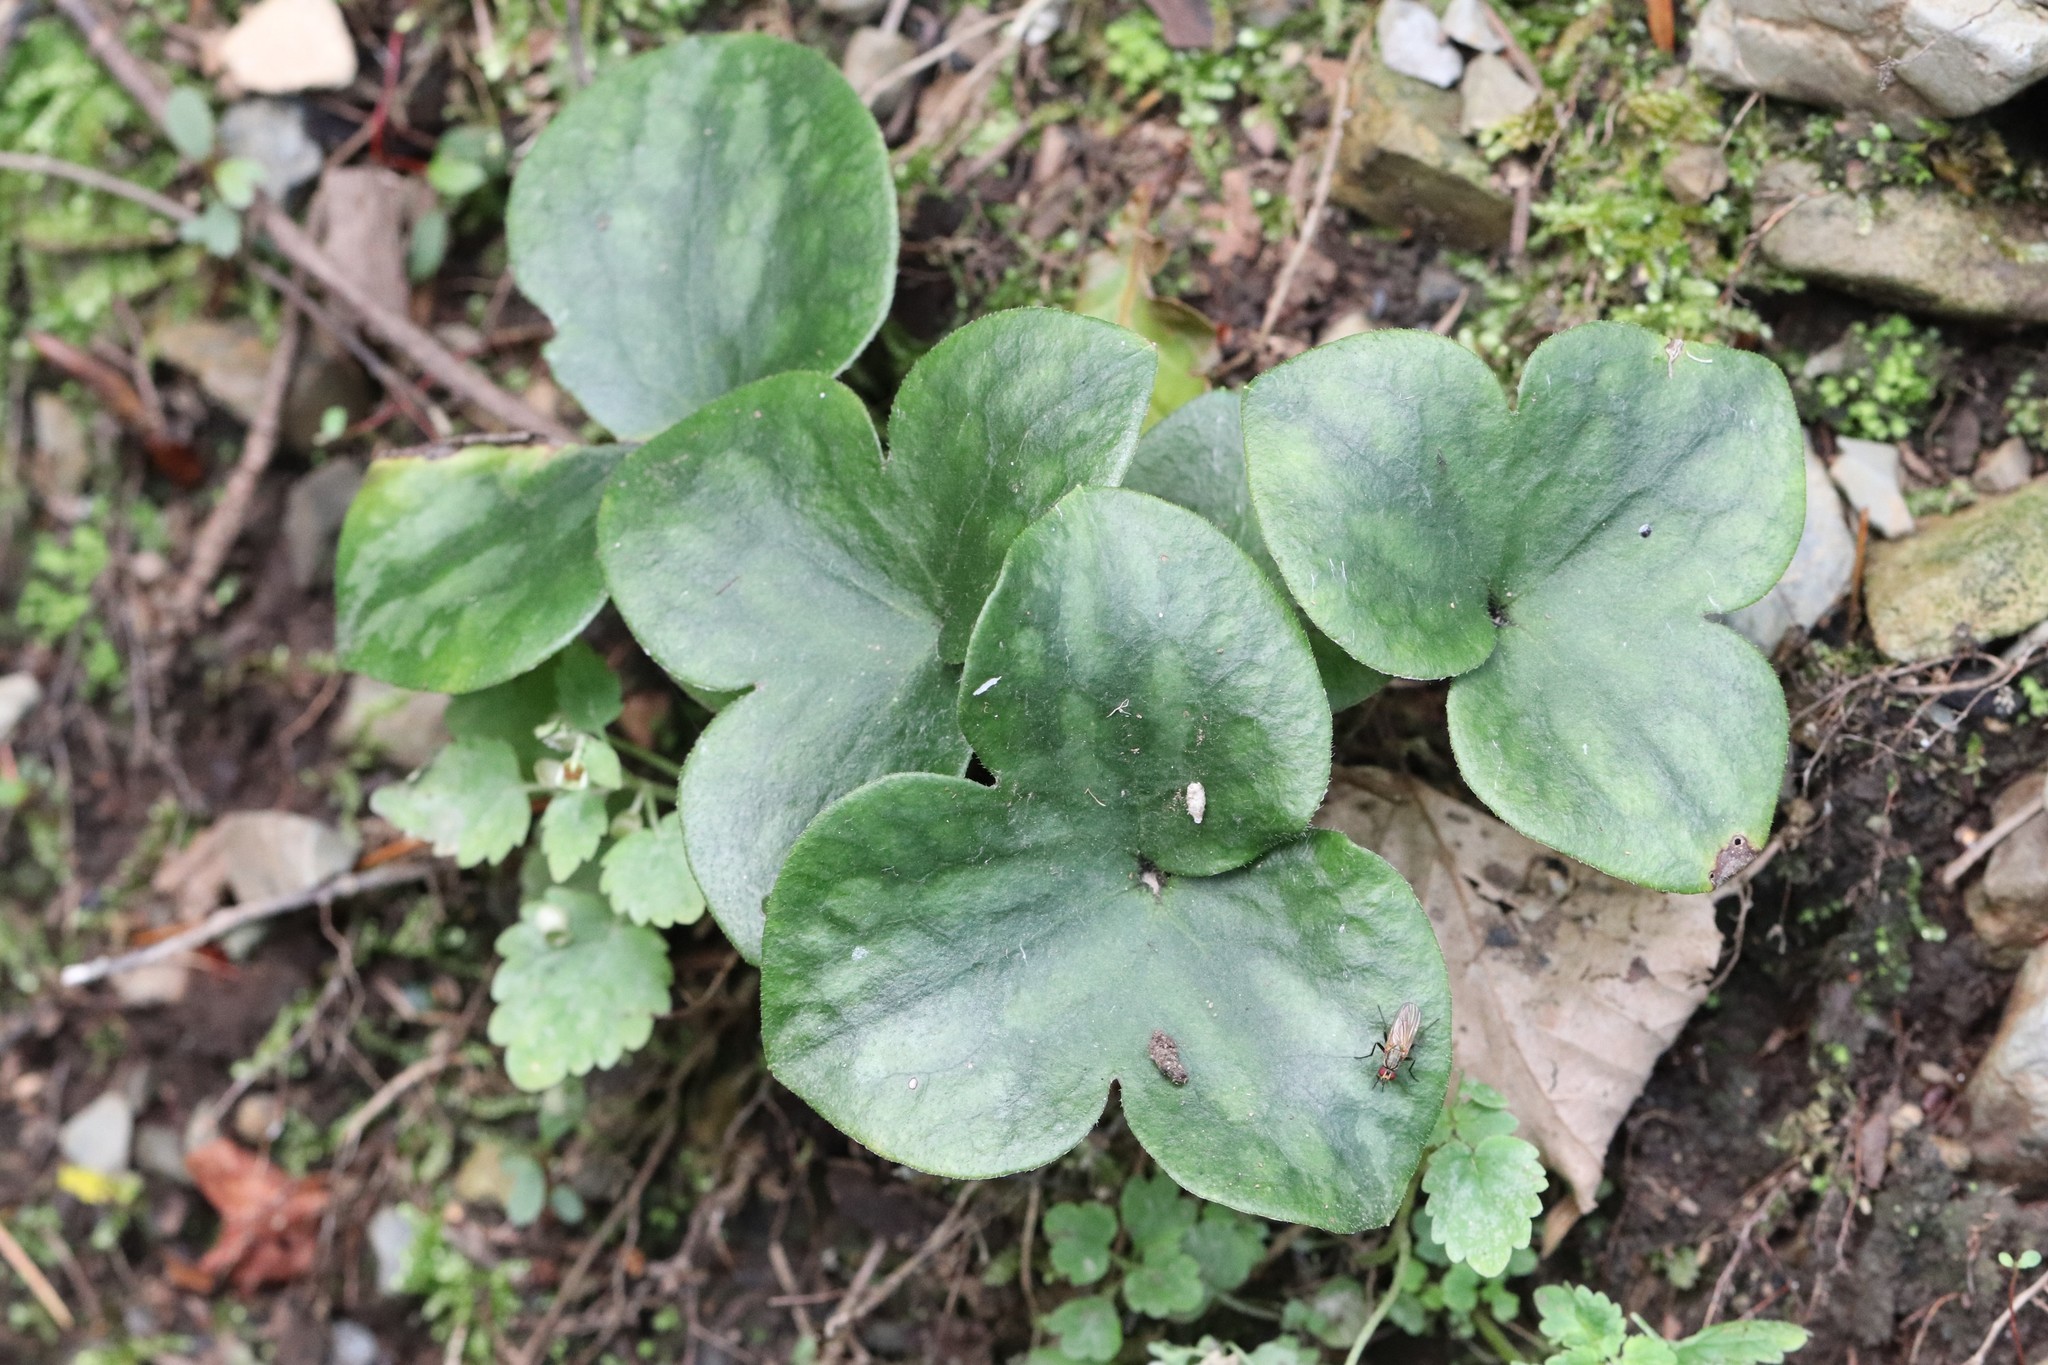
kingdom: Plantae
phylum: Tracheophyta
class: Magnoliopsida
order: Ranunculales
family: Ranunculaceae
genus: Hepatica
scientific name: Hepatica asiatica
